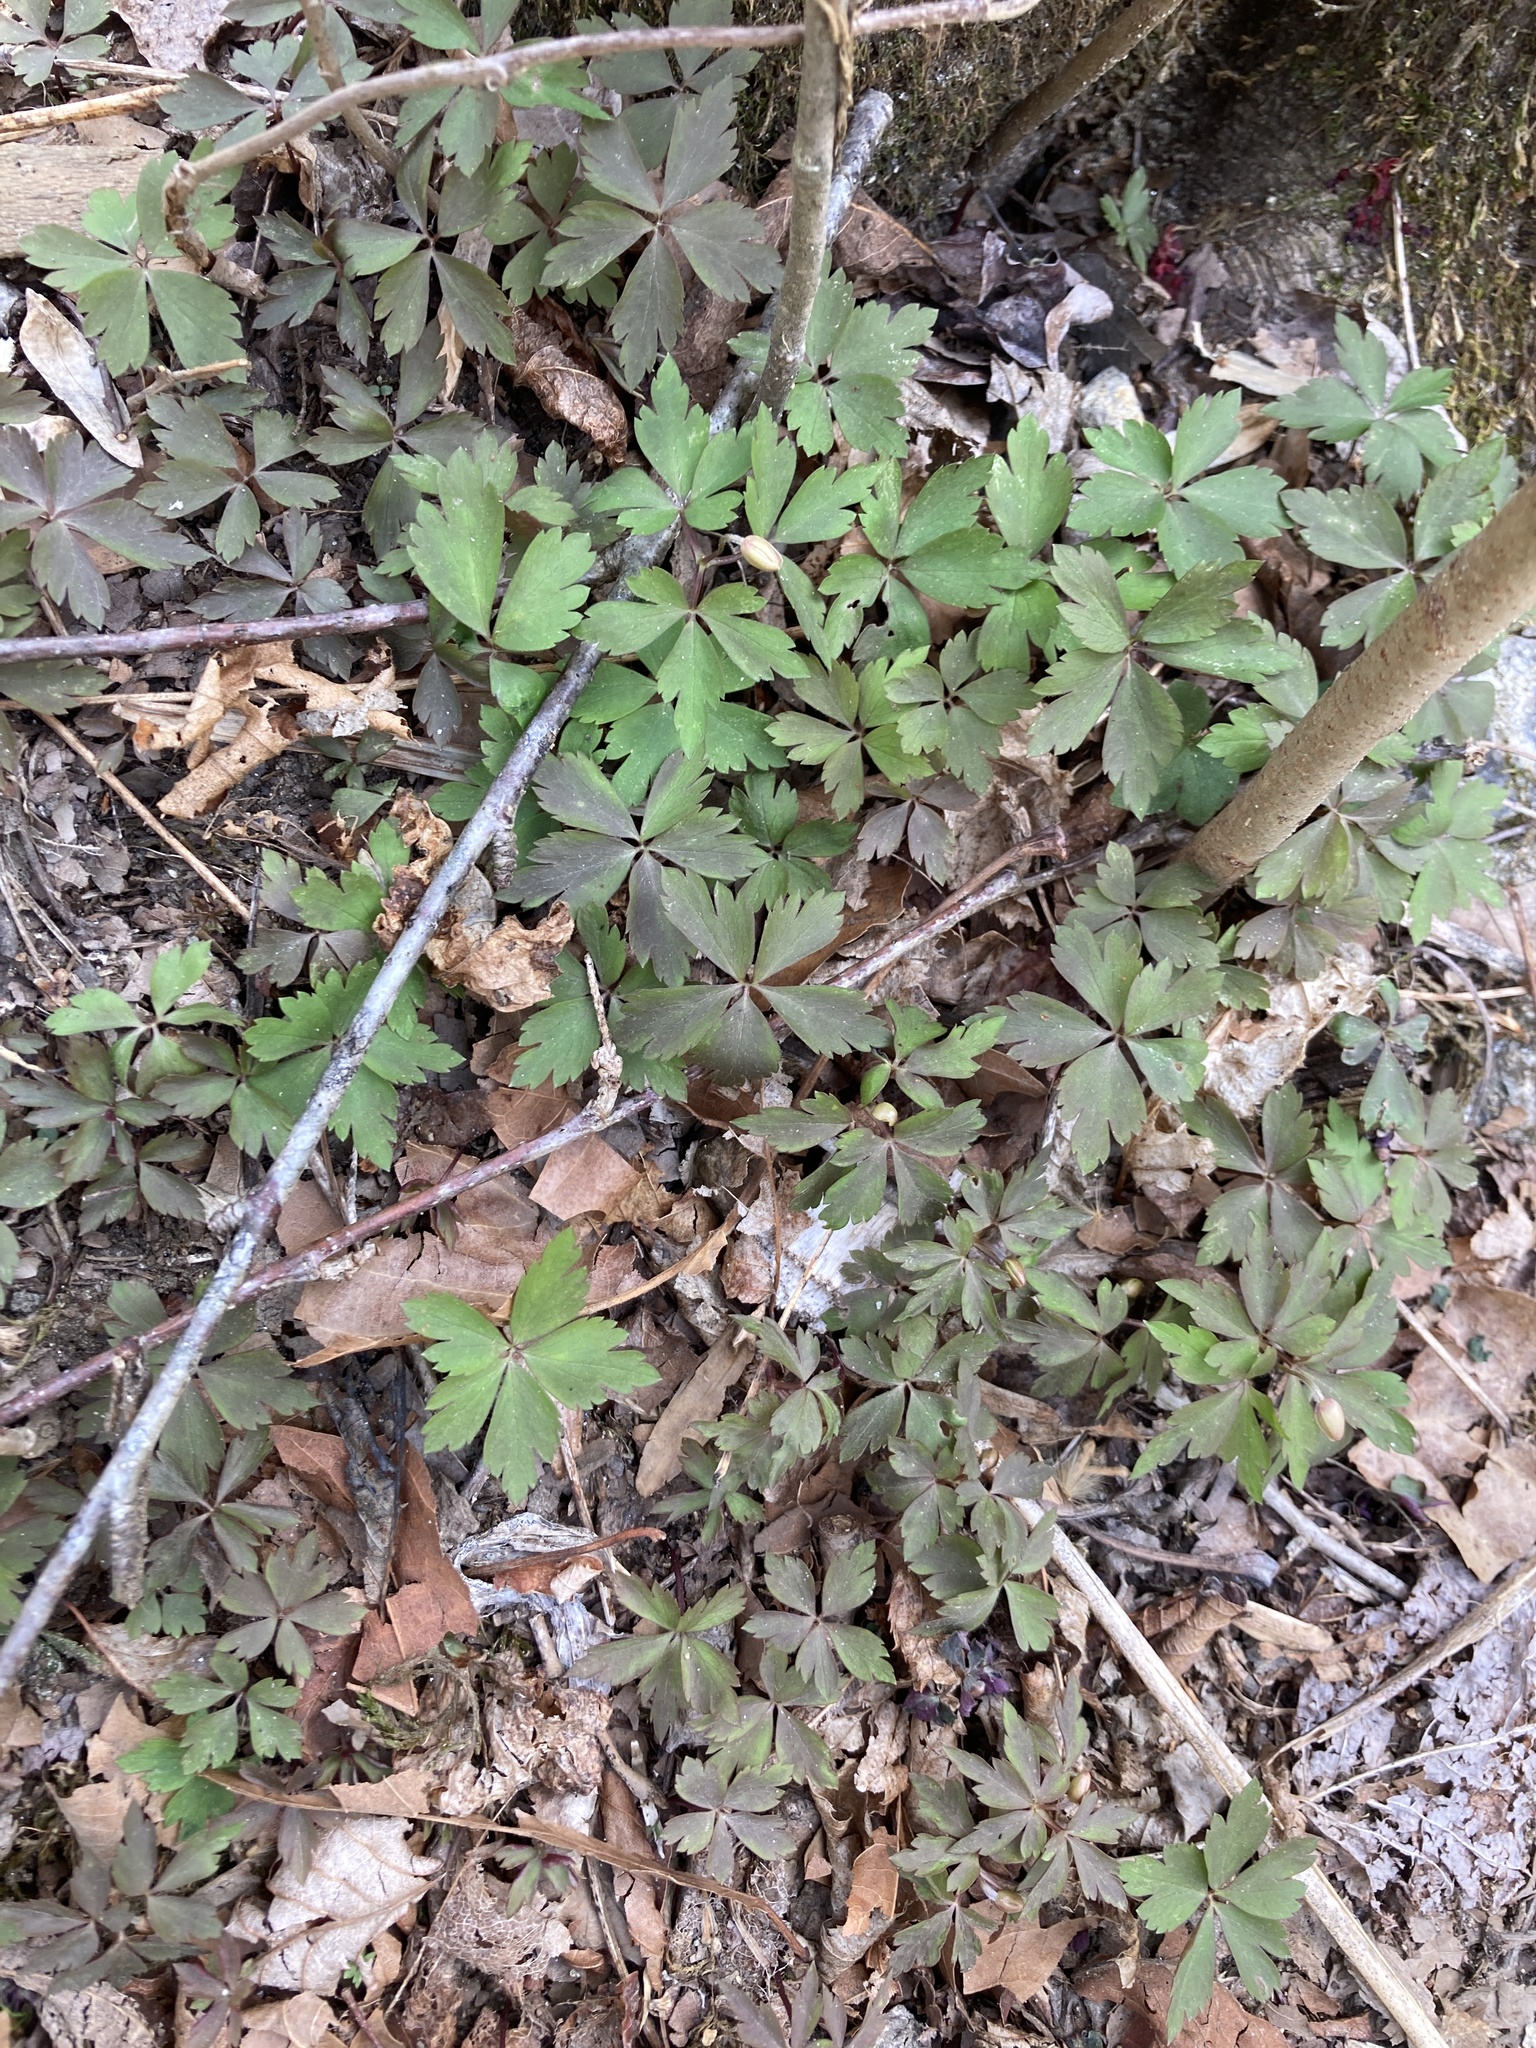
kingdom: Plantae
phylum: Tracheophyta
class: Magnoliopsida
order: Ranunculales
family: Ranunculaceae
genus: Anemone
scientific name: Anemone quinquefolia
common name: Wood anemone
